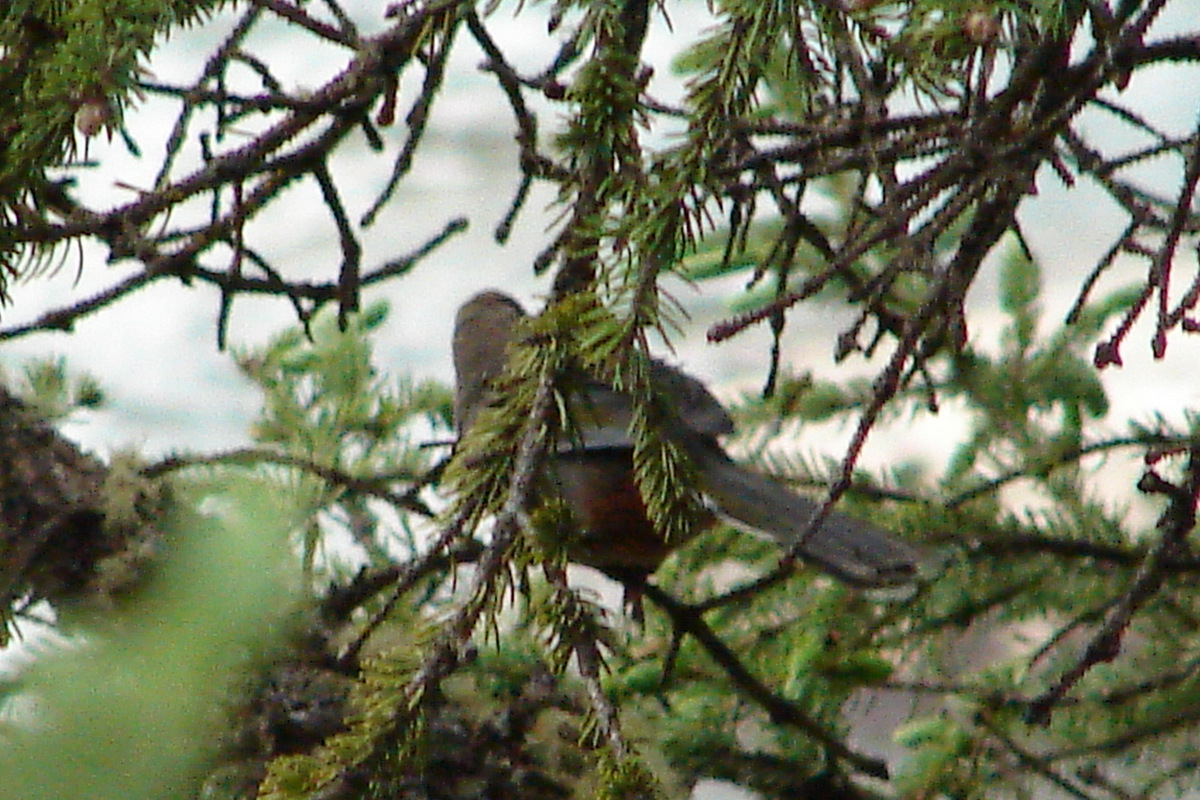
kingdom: Animalia
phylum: Chordata
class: Aves
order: Passeriformes
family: Leiothrichidae
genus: Trochalopteron
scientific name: Trochalopteron elliotii
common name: Elliot's laughingthrush
